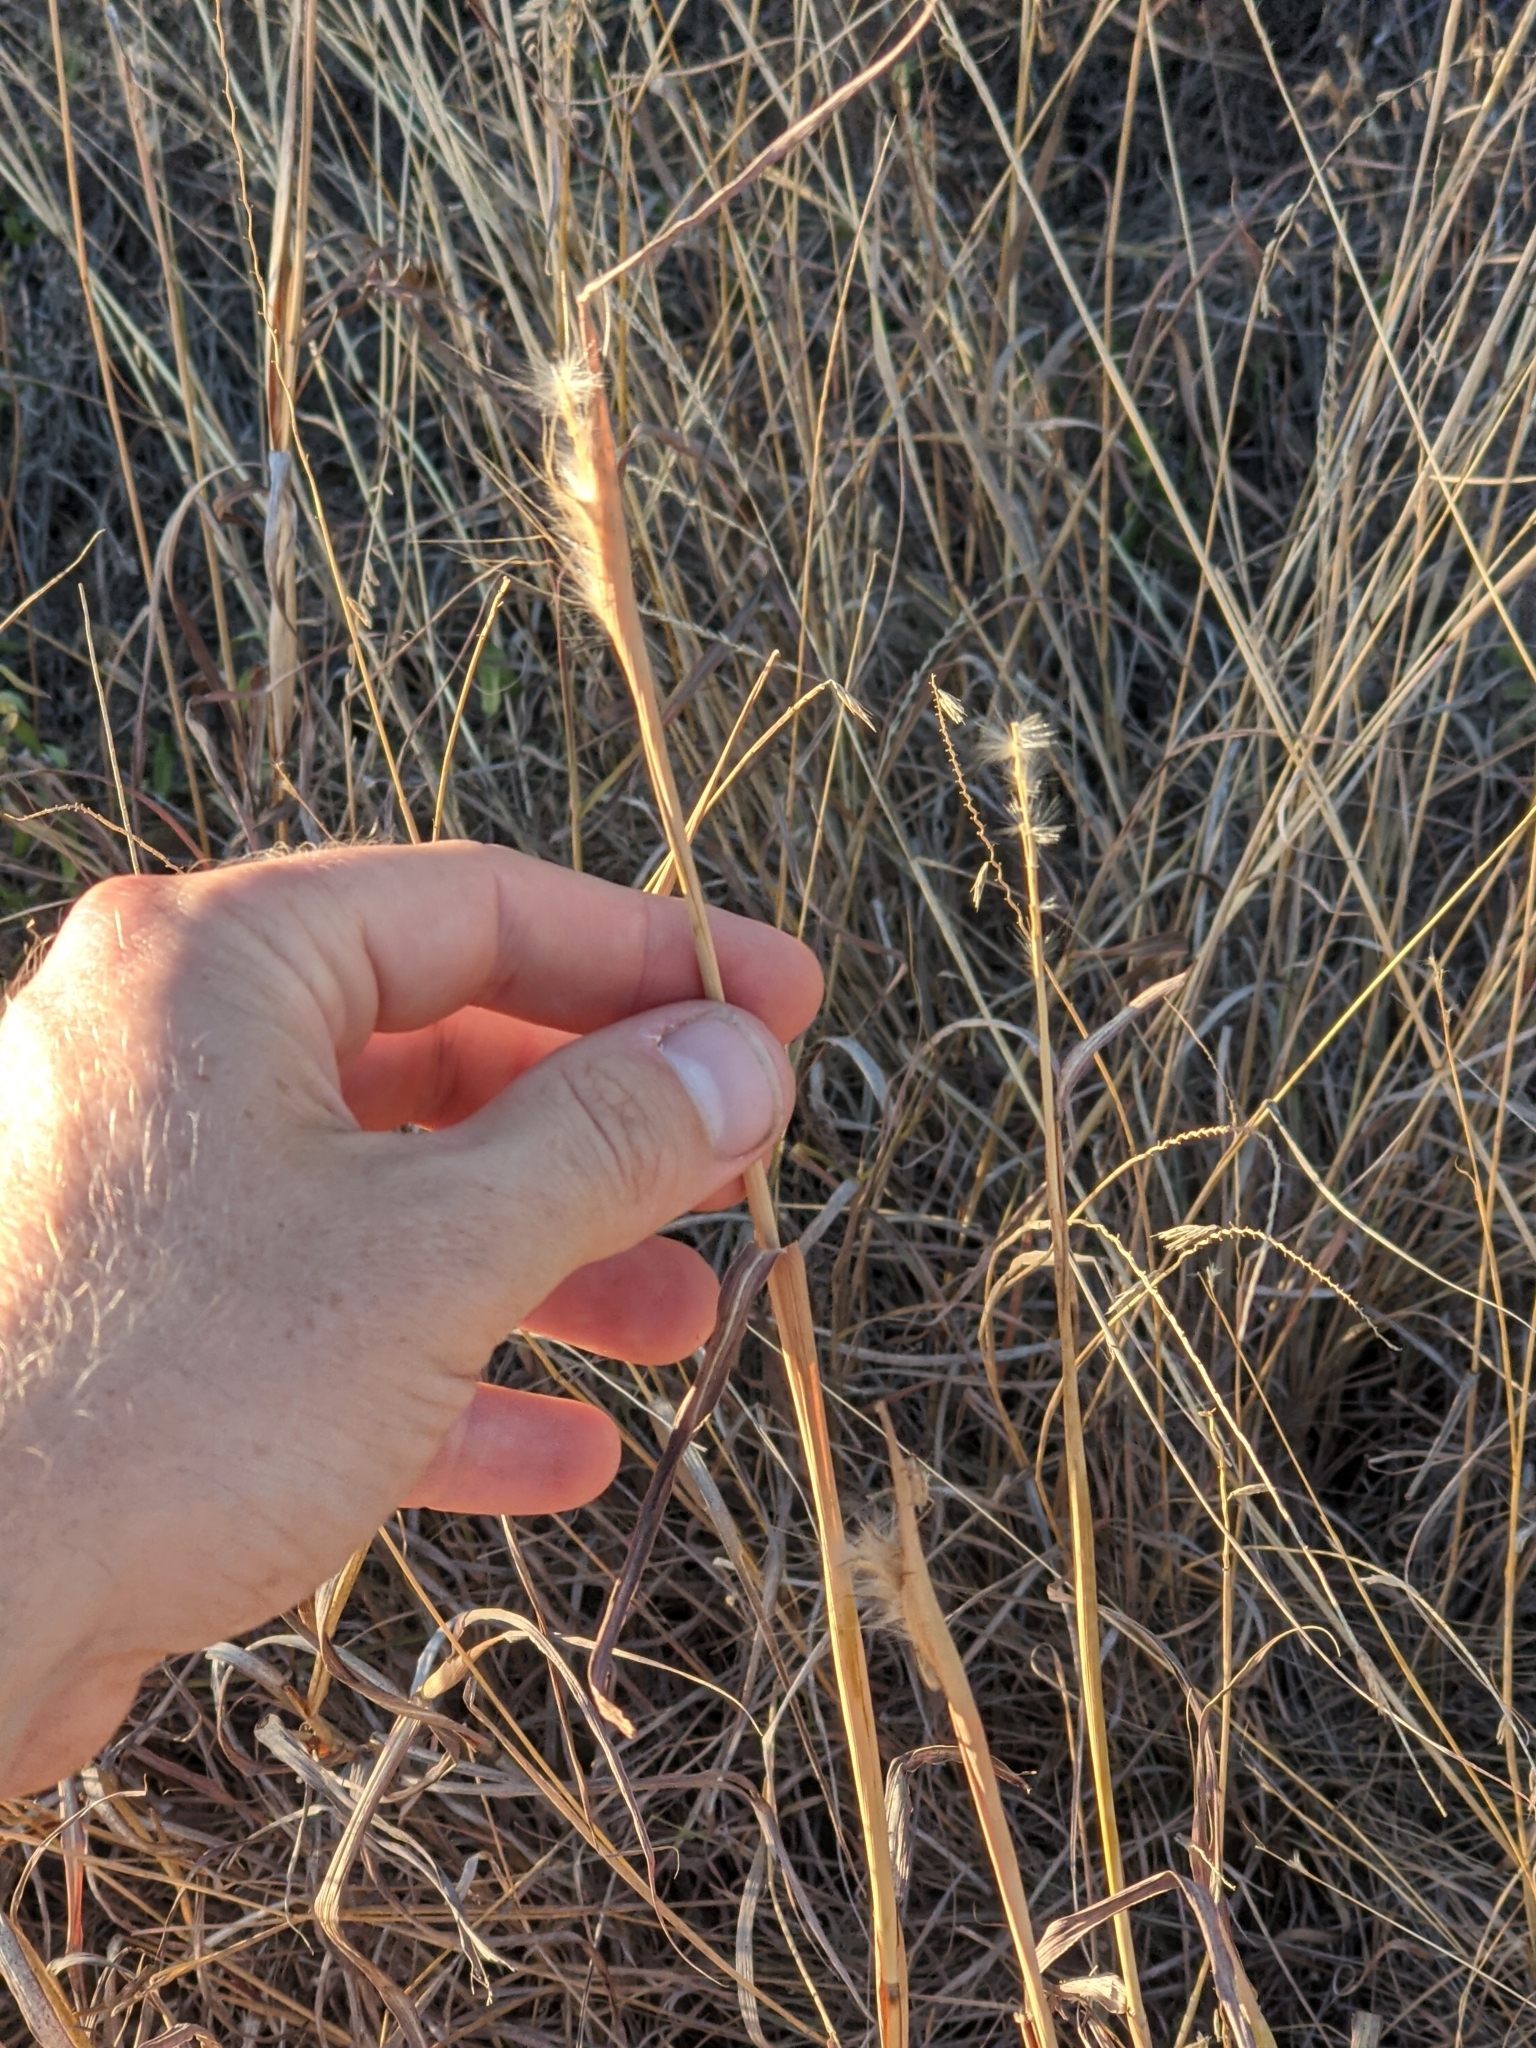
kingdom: Plantae
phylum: Tracheophyta
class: Liliopsida
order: Poales
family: Poaceae
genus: Bothriochloa
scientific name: Bothriochloa barbinodis
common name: Cane bluestem
